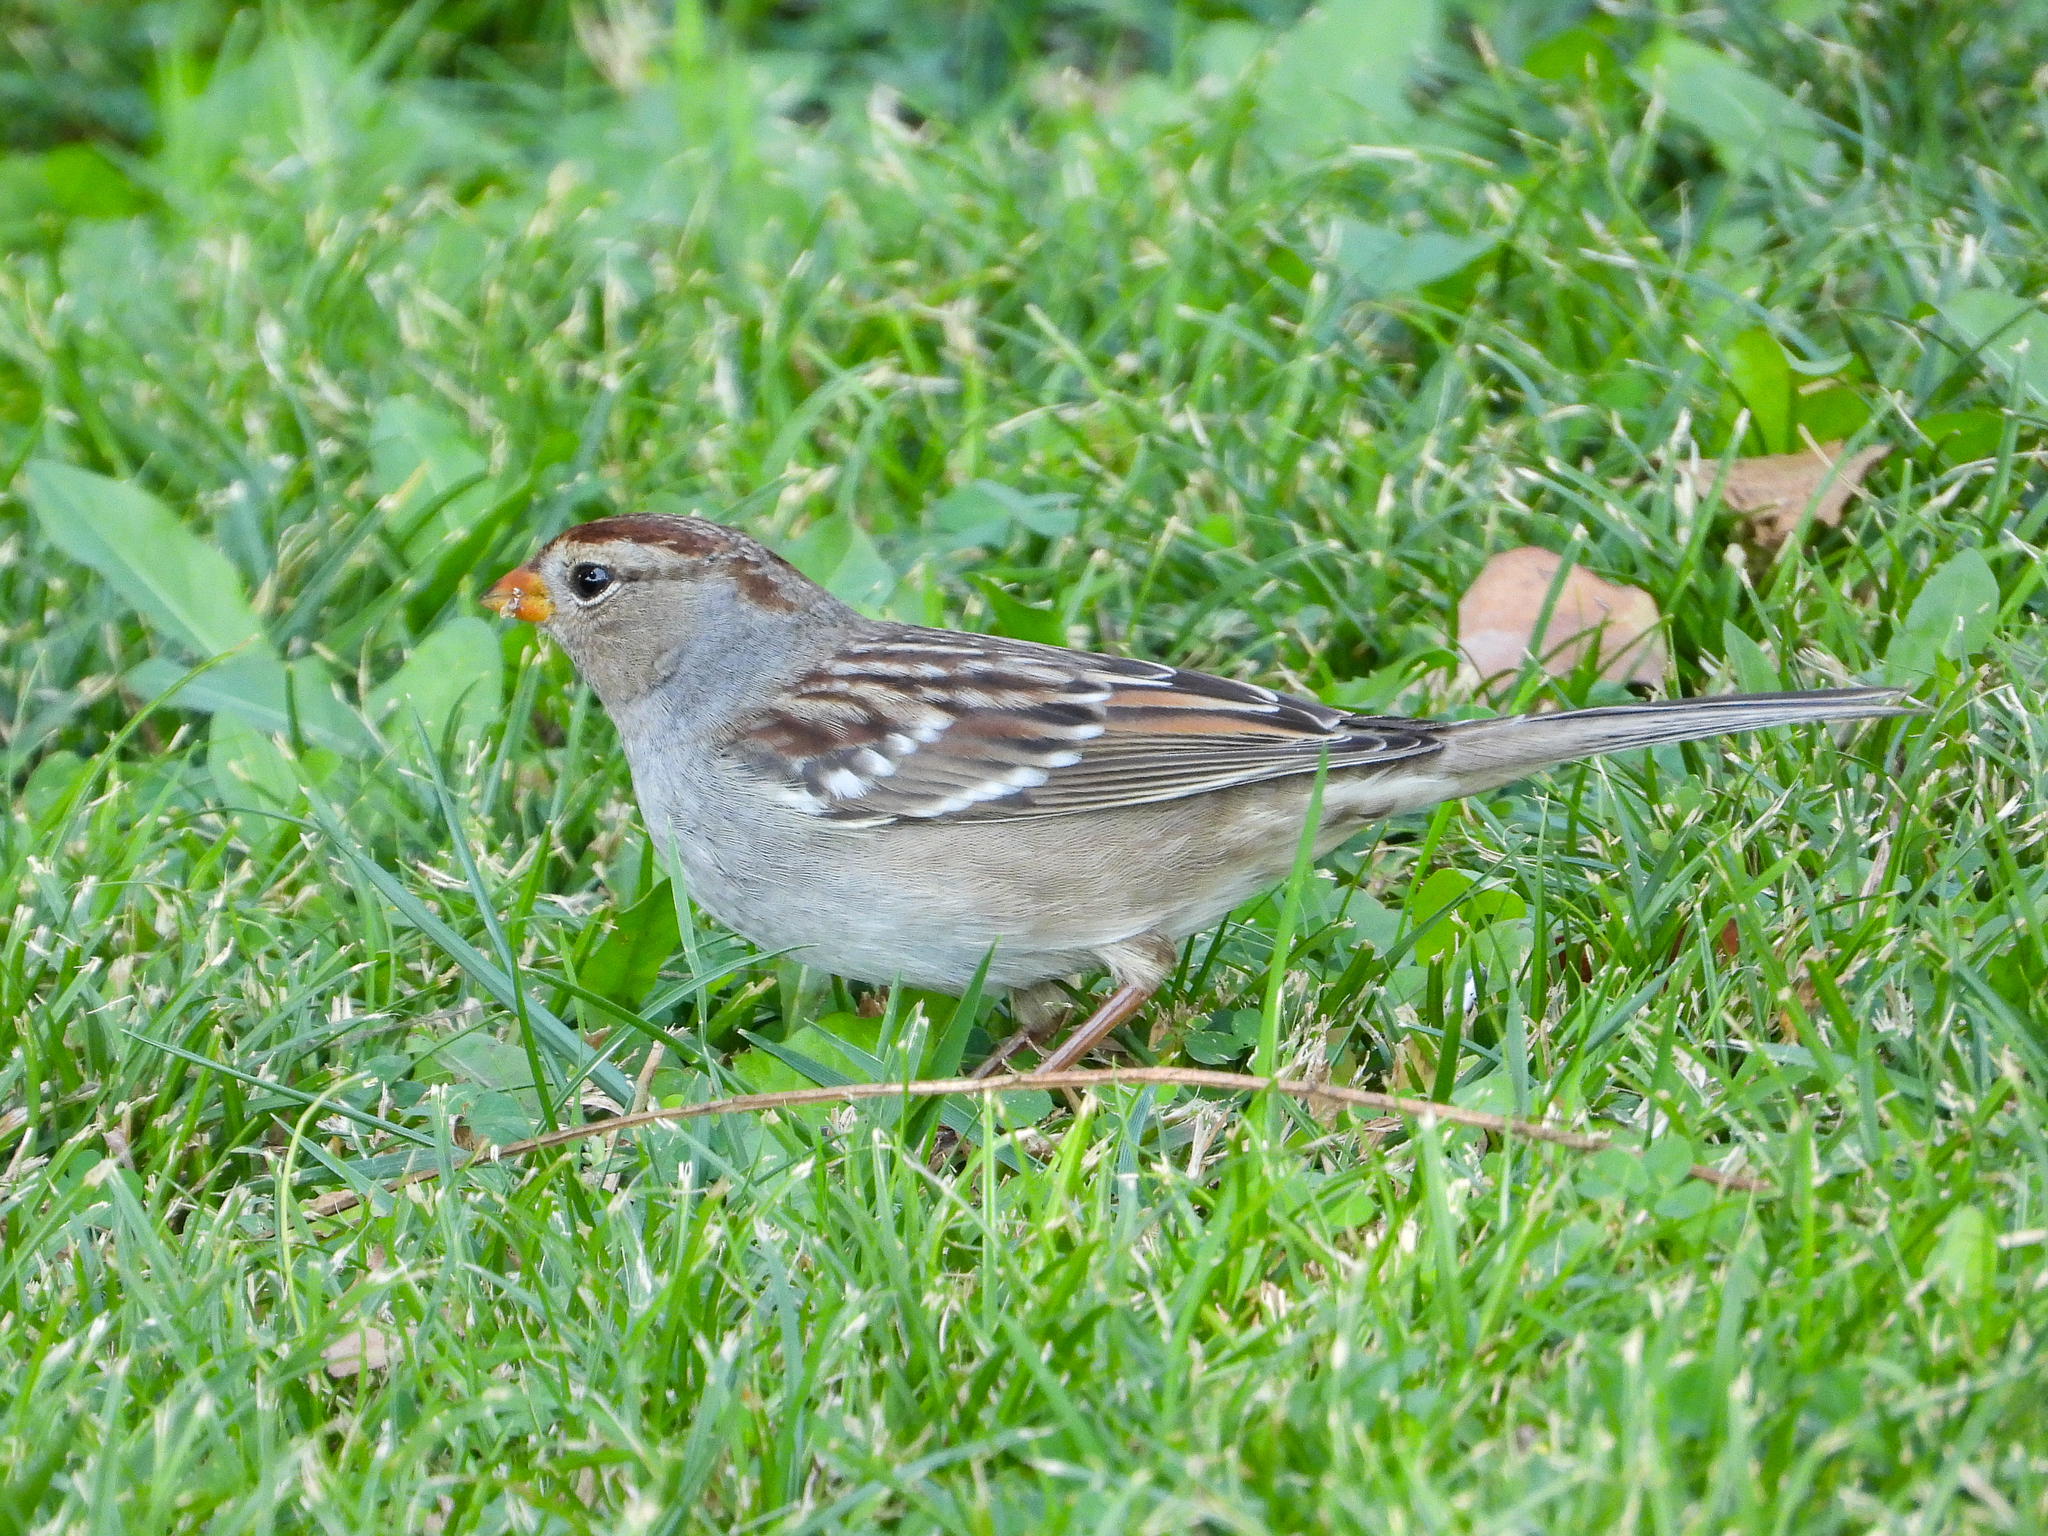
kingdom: Animalia
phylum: Chordata
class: Aves
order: Passeriformes
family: Passerellidae
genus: Zonotrichia
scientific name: Zonotrichia leucophrys
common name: White-crowned sparrow
